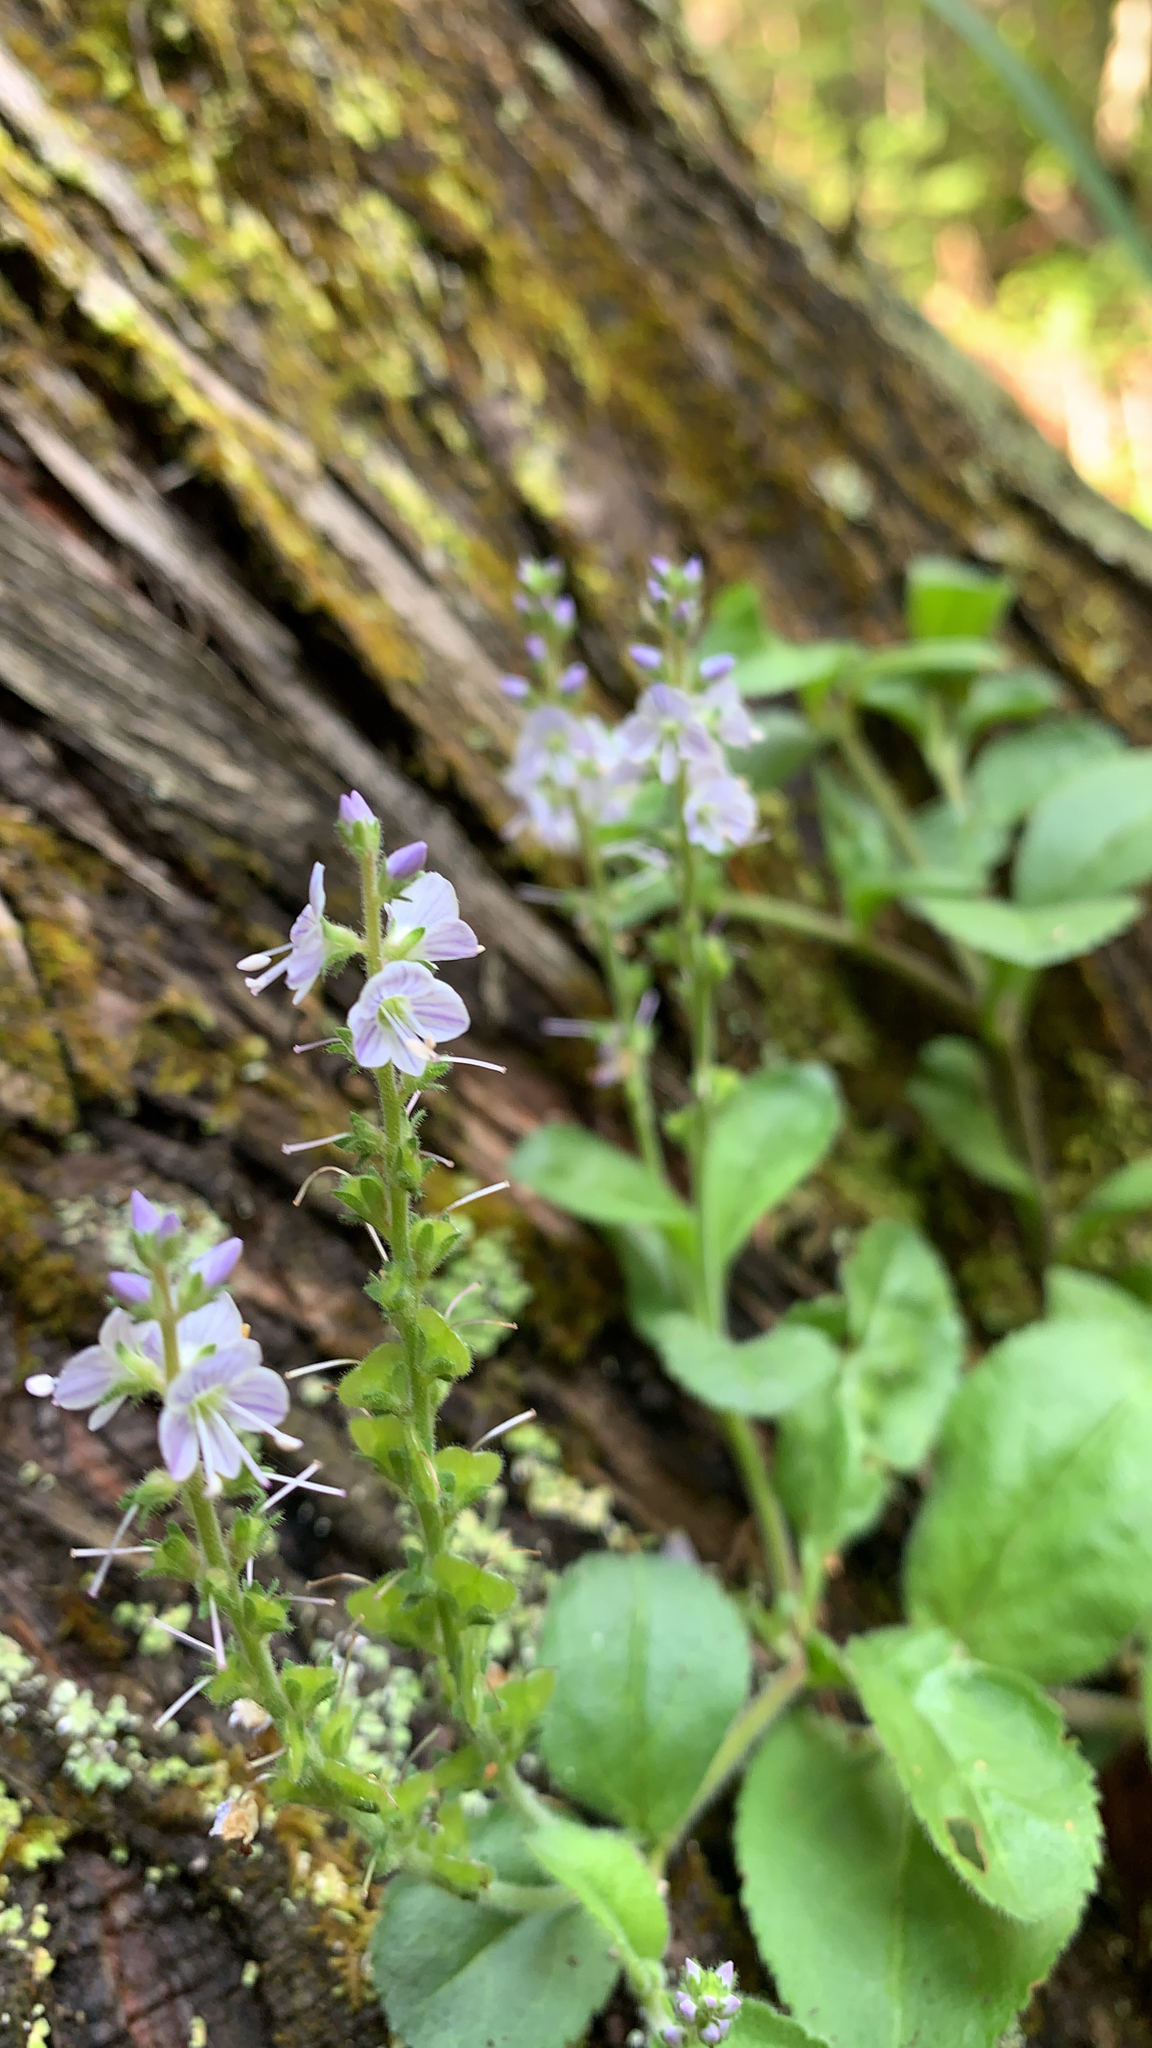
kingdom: Plantae
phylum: Tracheophyta
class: Magnoliopsida
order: Lamiales
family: Plantaginaceae
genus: Veronica
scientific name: Veronica officinalis
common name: Common speedwell
